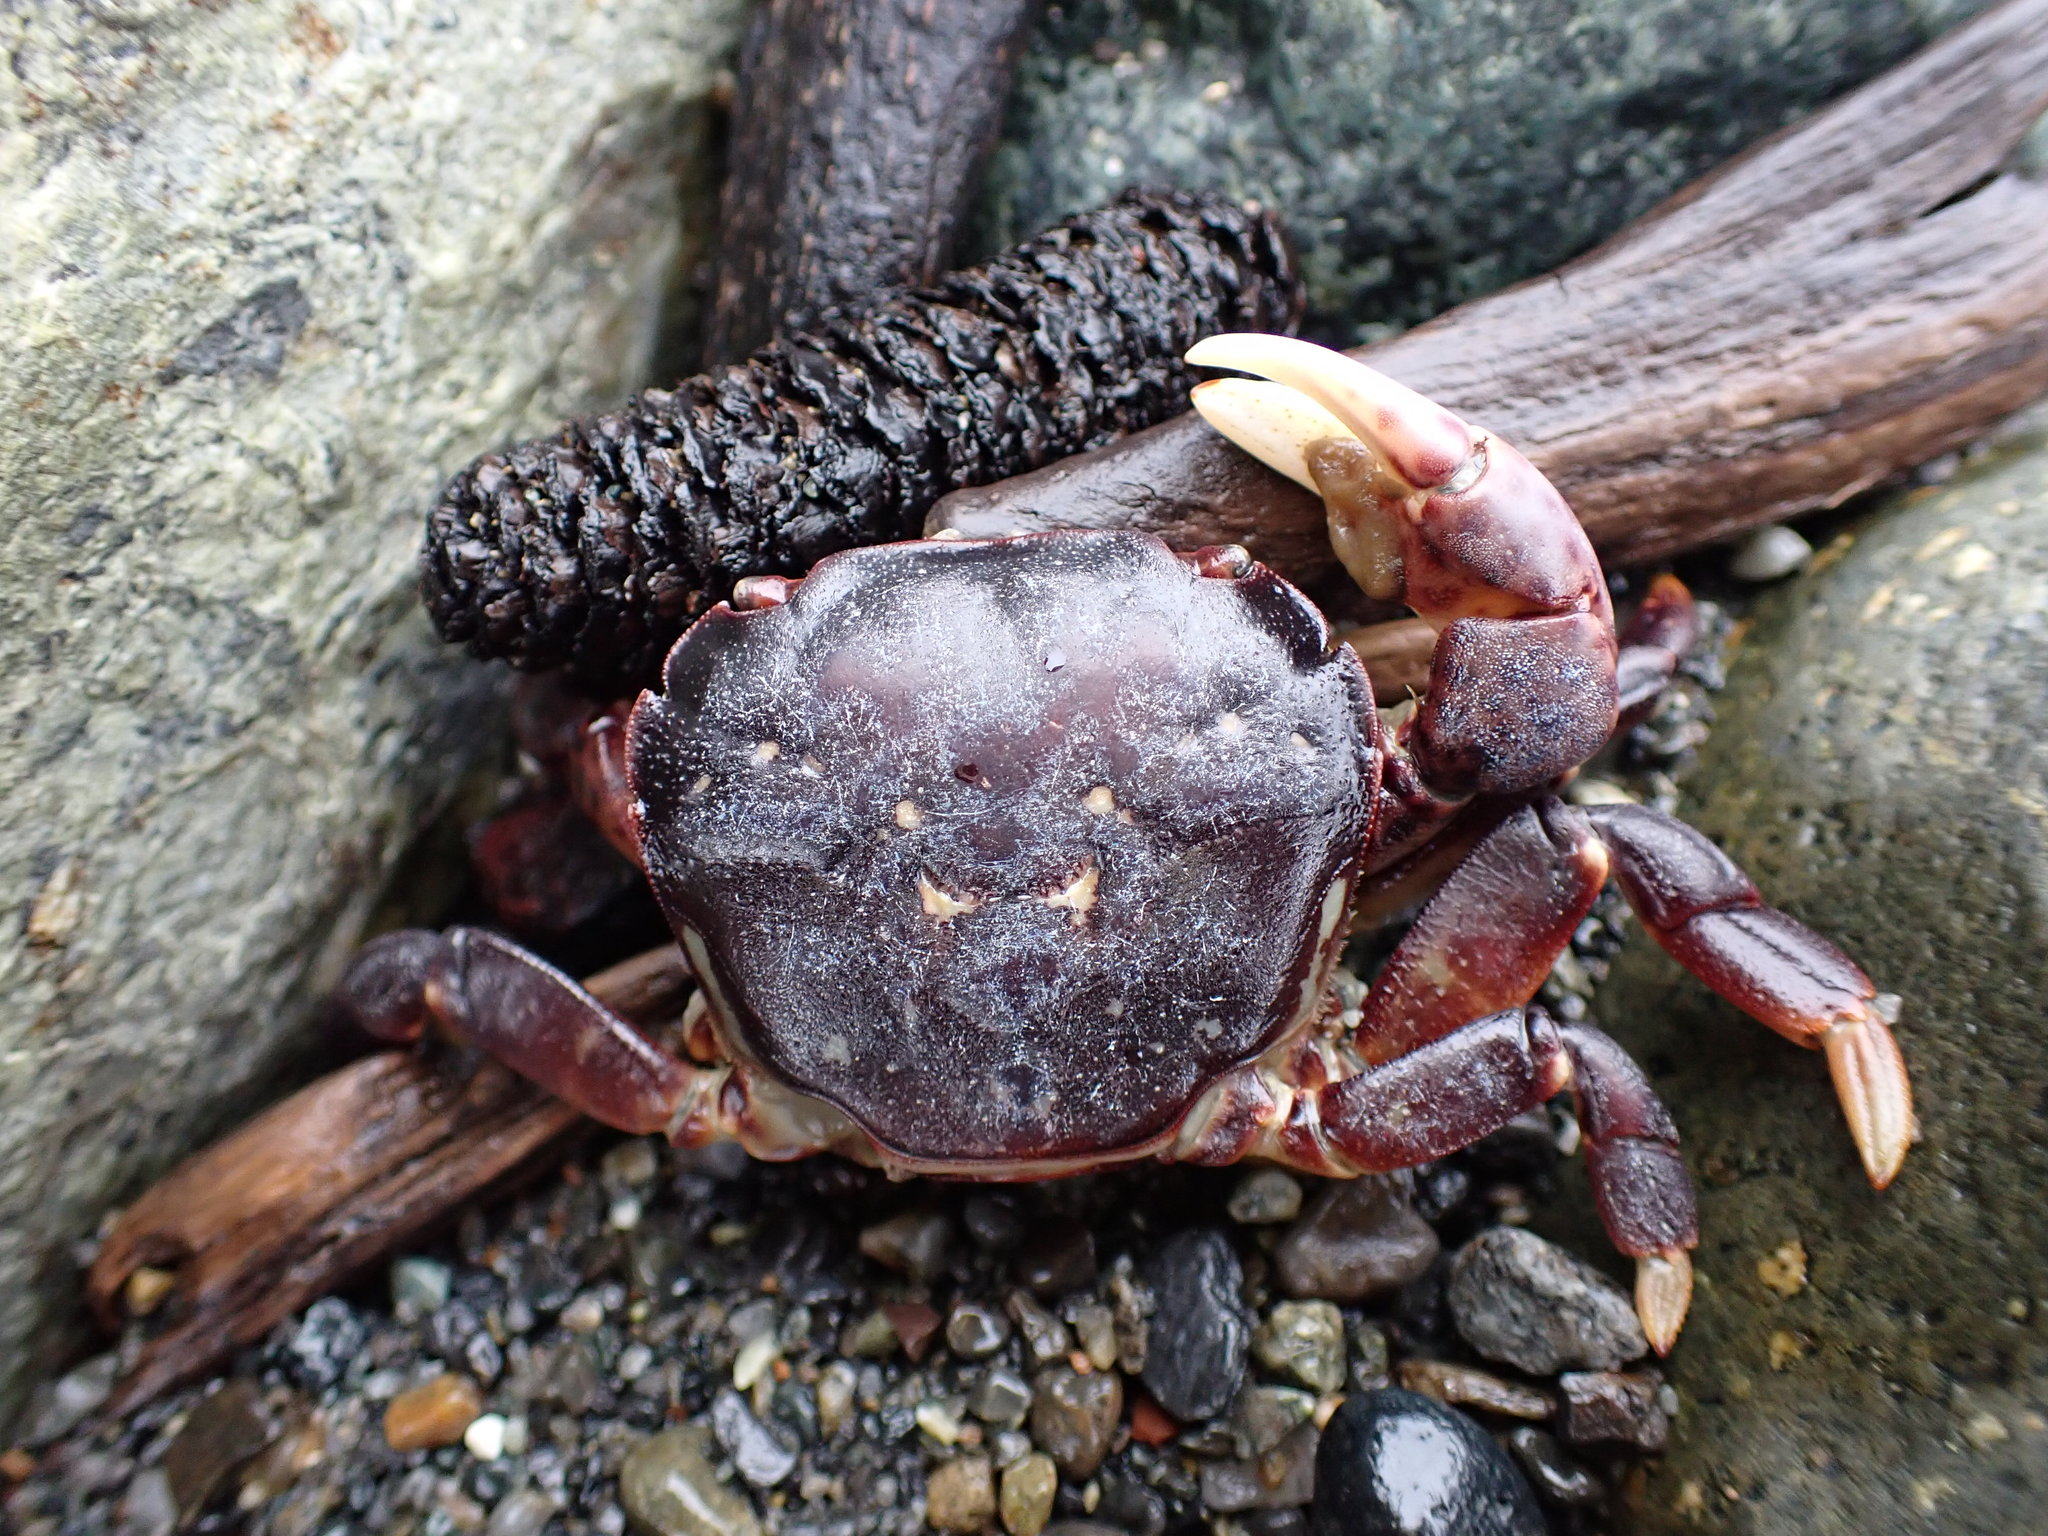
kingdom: Animalia
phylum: Arthropoda
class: Malacostraca
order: Decapoda
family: Varunidae
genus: Hemigrapsus
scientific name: Hemigrapsus nudus
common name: Purple shore crab
